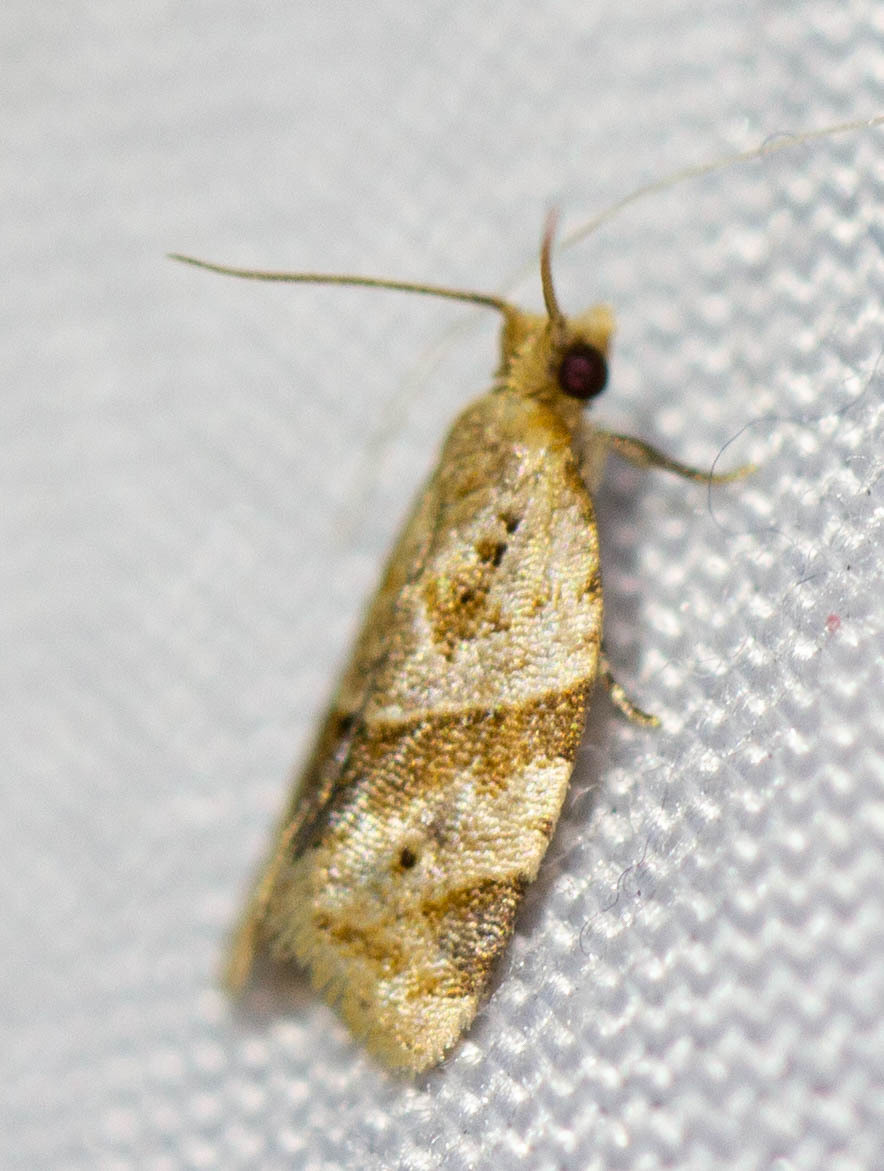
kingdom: Animalia
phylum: Arthropoda
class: Insecta
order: Lepidoptera
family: Tortricidae
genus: Clepsis
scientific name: Clepsis peritana
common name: Garden tortrix
